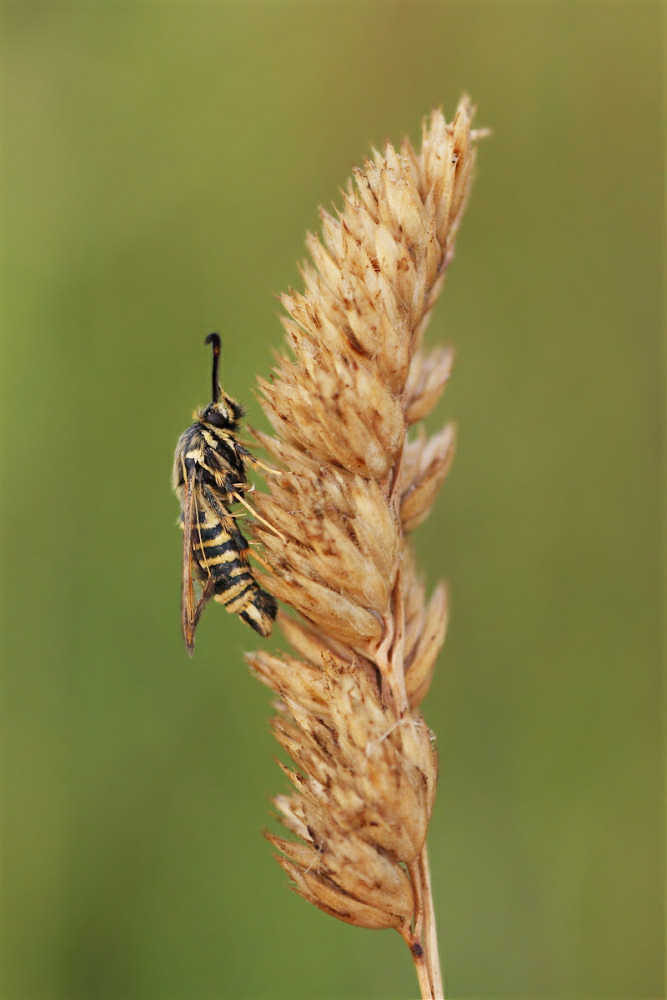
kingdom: Animalia
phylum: Arthropoda
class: Insecta
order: Lepidoptera
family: Sesiidae
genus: Bembecia
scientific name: Bembecia ichneumoniformis
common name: Six-belted clearwing
